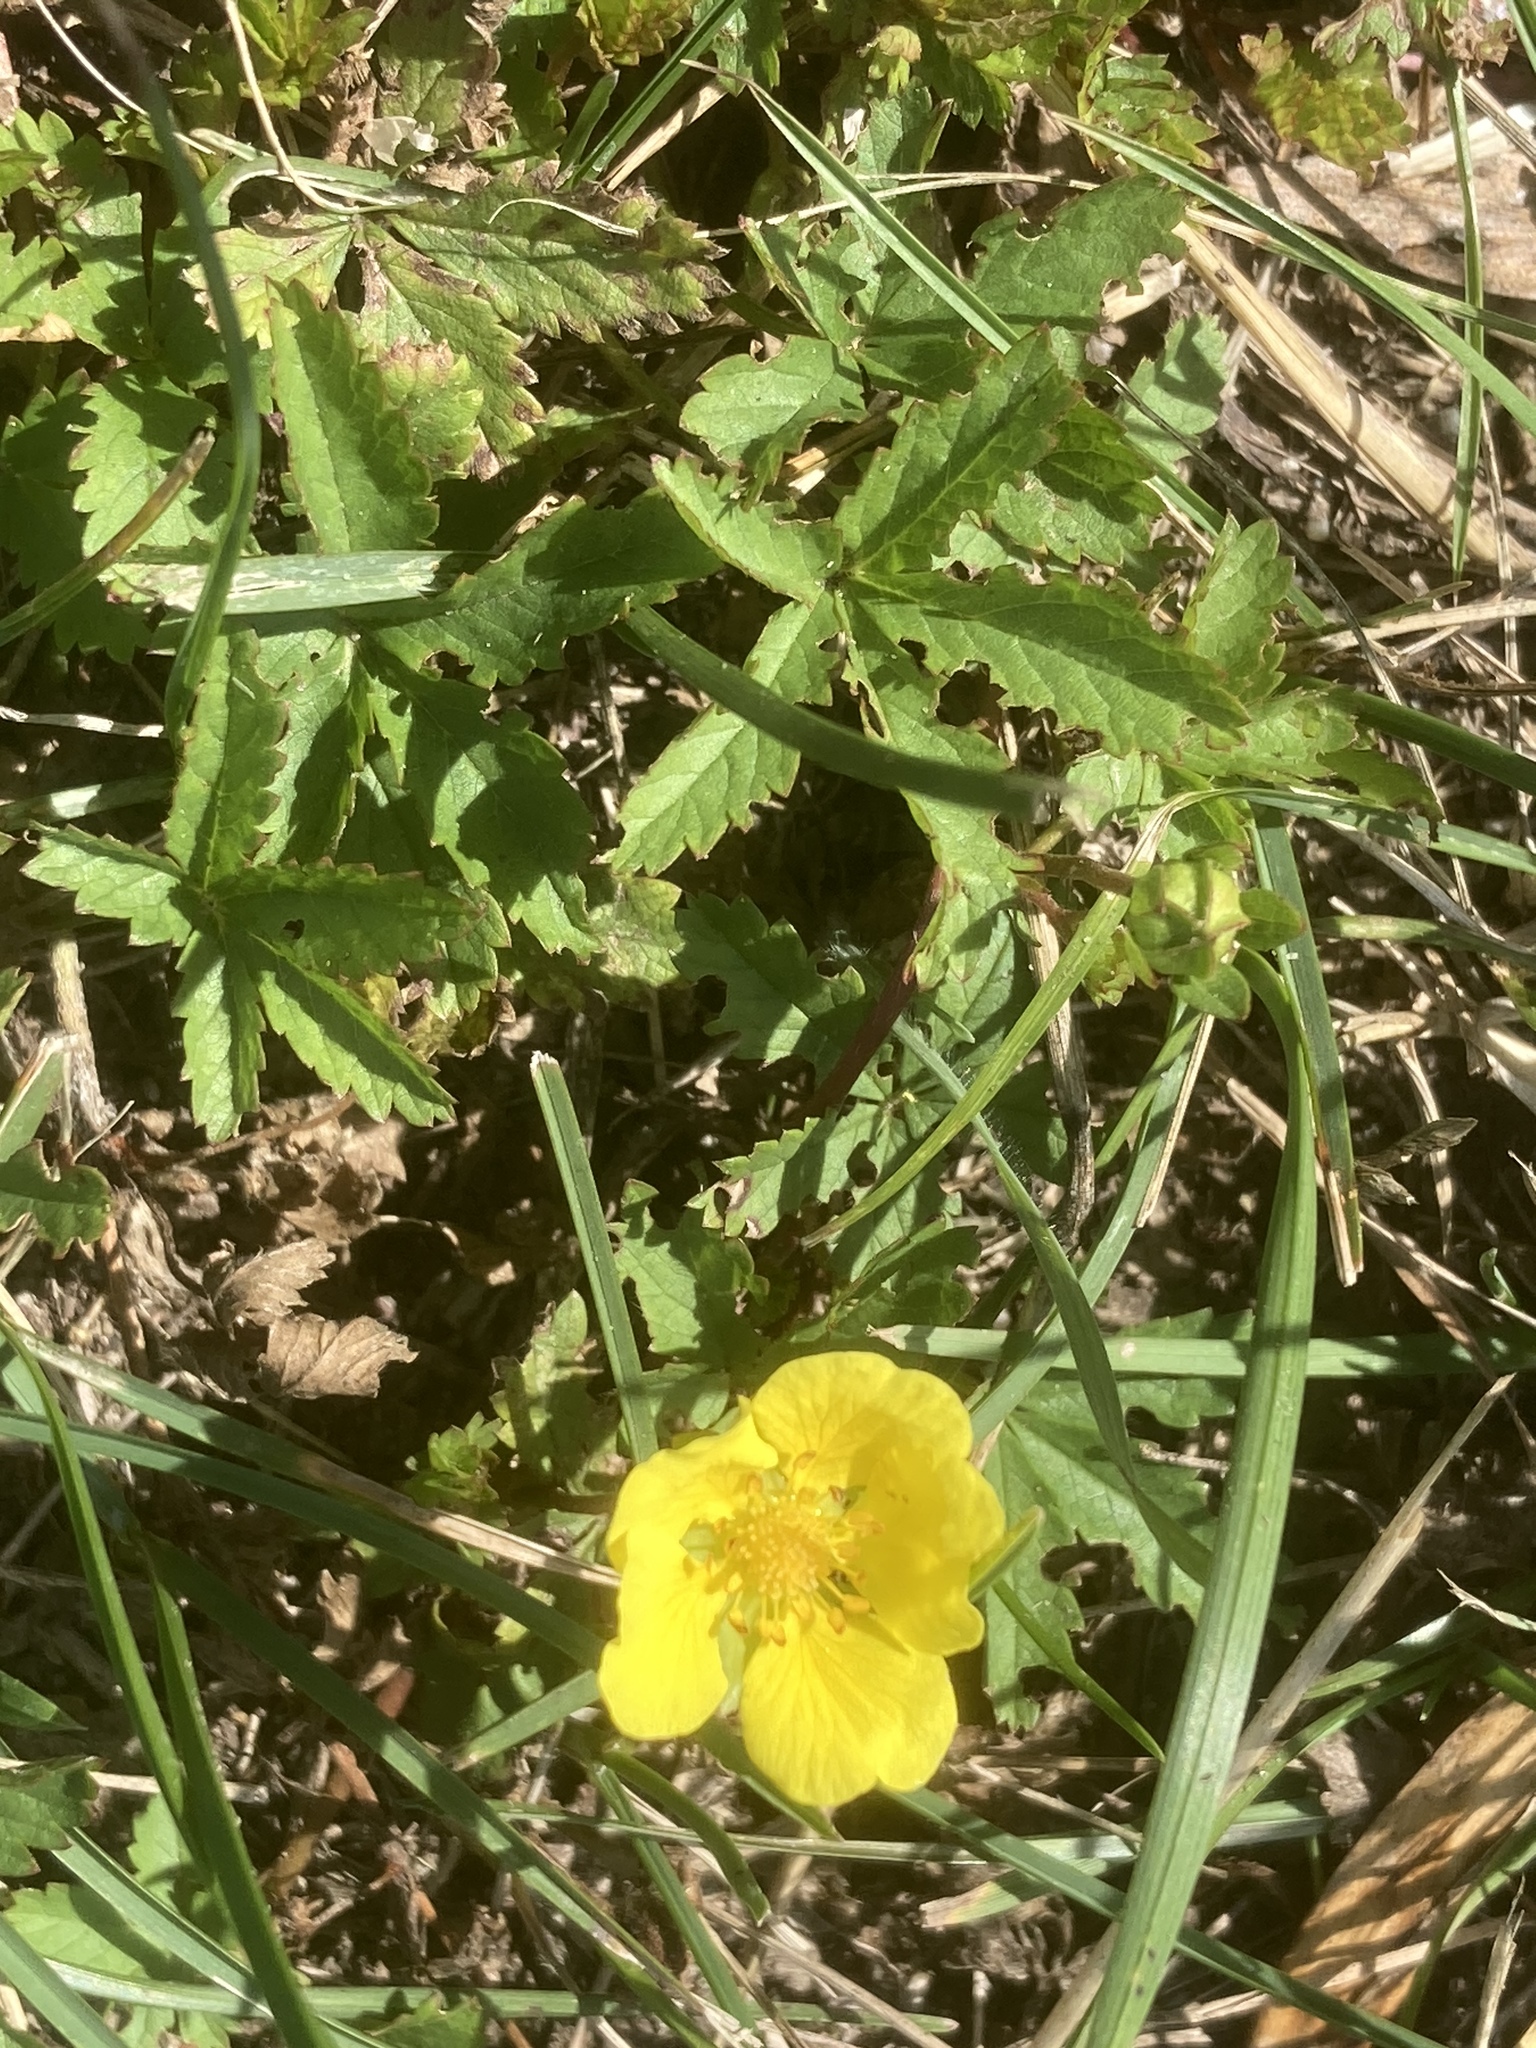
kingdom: Plantae
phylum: Tracheophyta
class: Magnoliopsida
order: Rosales
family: Rosaceae
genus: Potentilla
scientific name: Potentilla reptans
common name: Creeping cinquefoil
